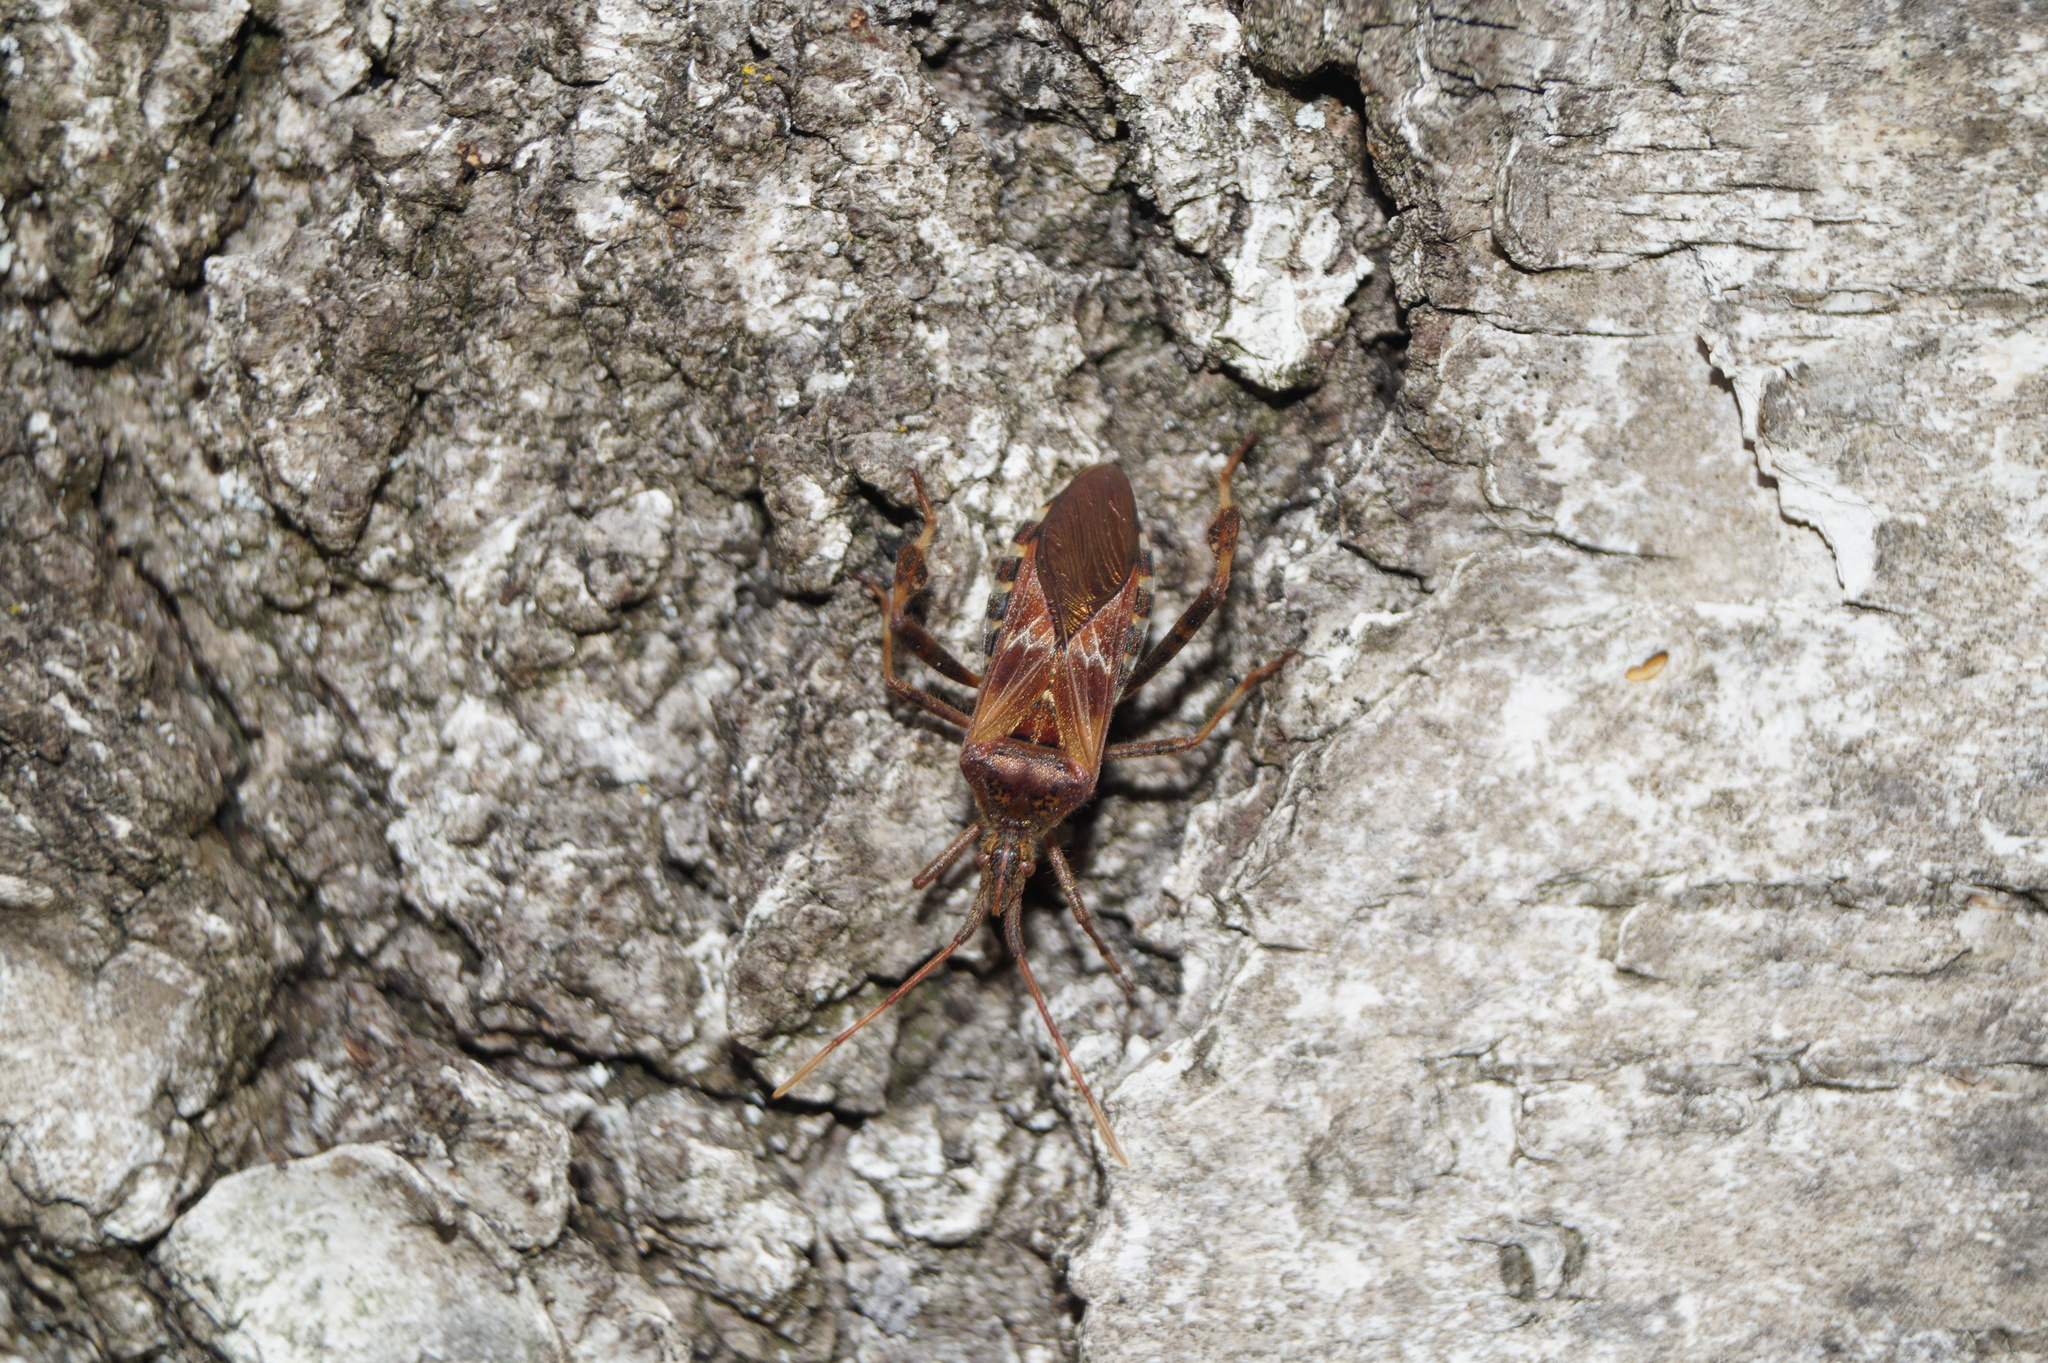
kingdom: Animalia
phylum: Arthropoda
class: Insecta
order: Hemiptera
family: Coreidae
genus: Leptoglossus
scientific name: Leptoglossus occidentalis
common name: Western conifer-seed bug
